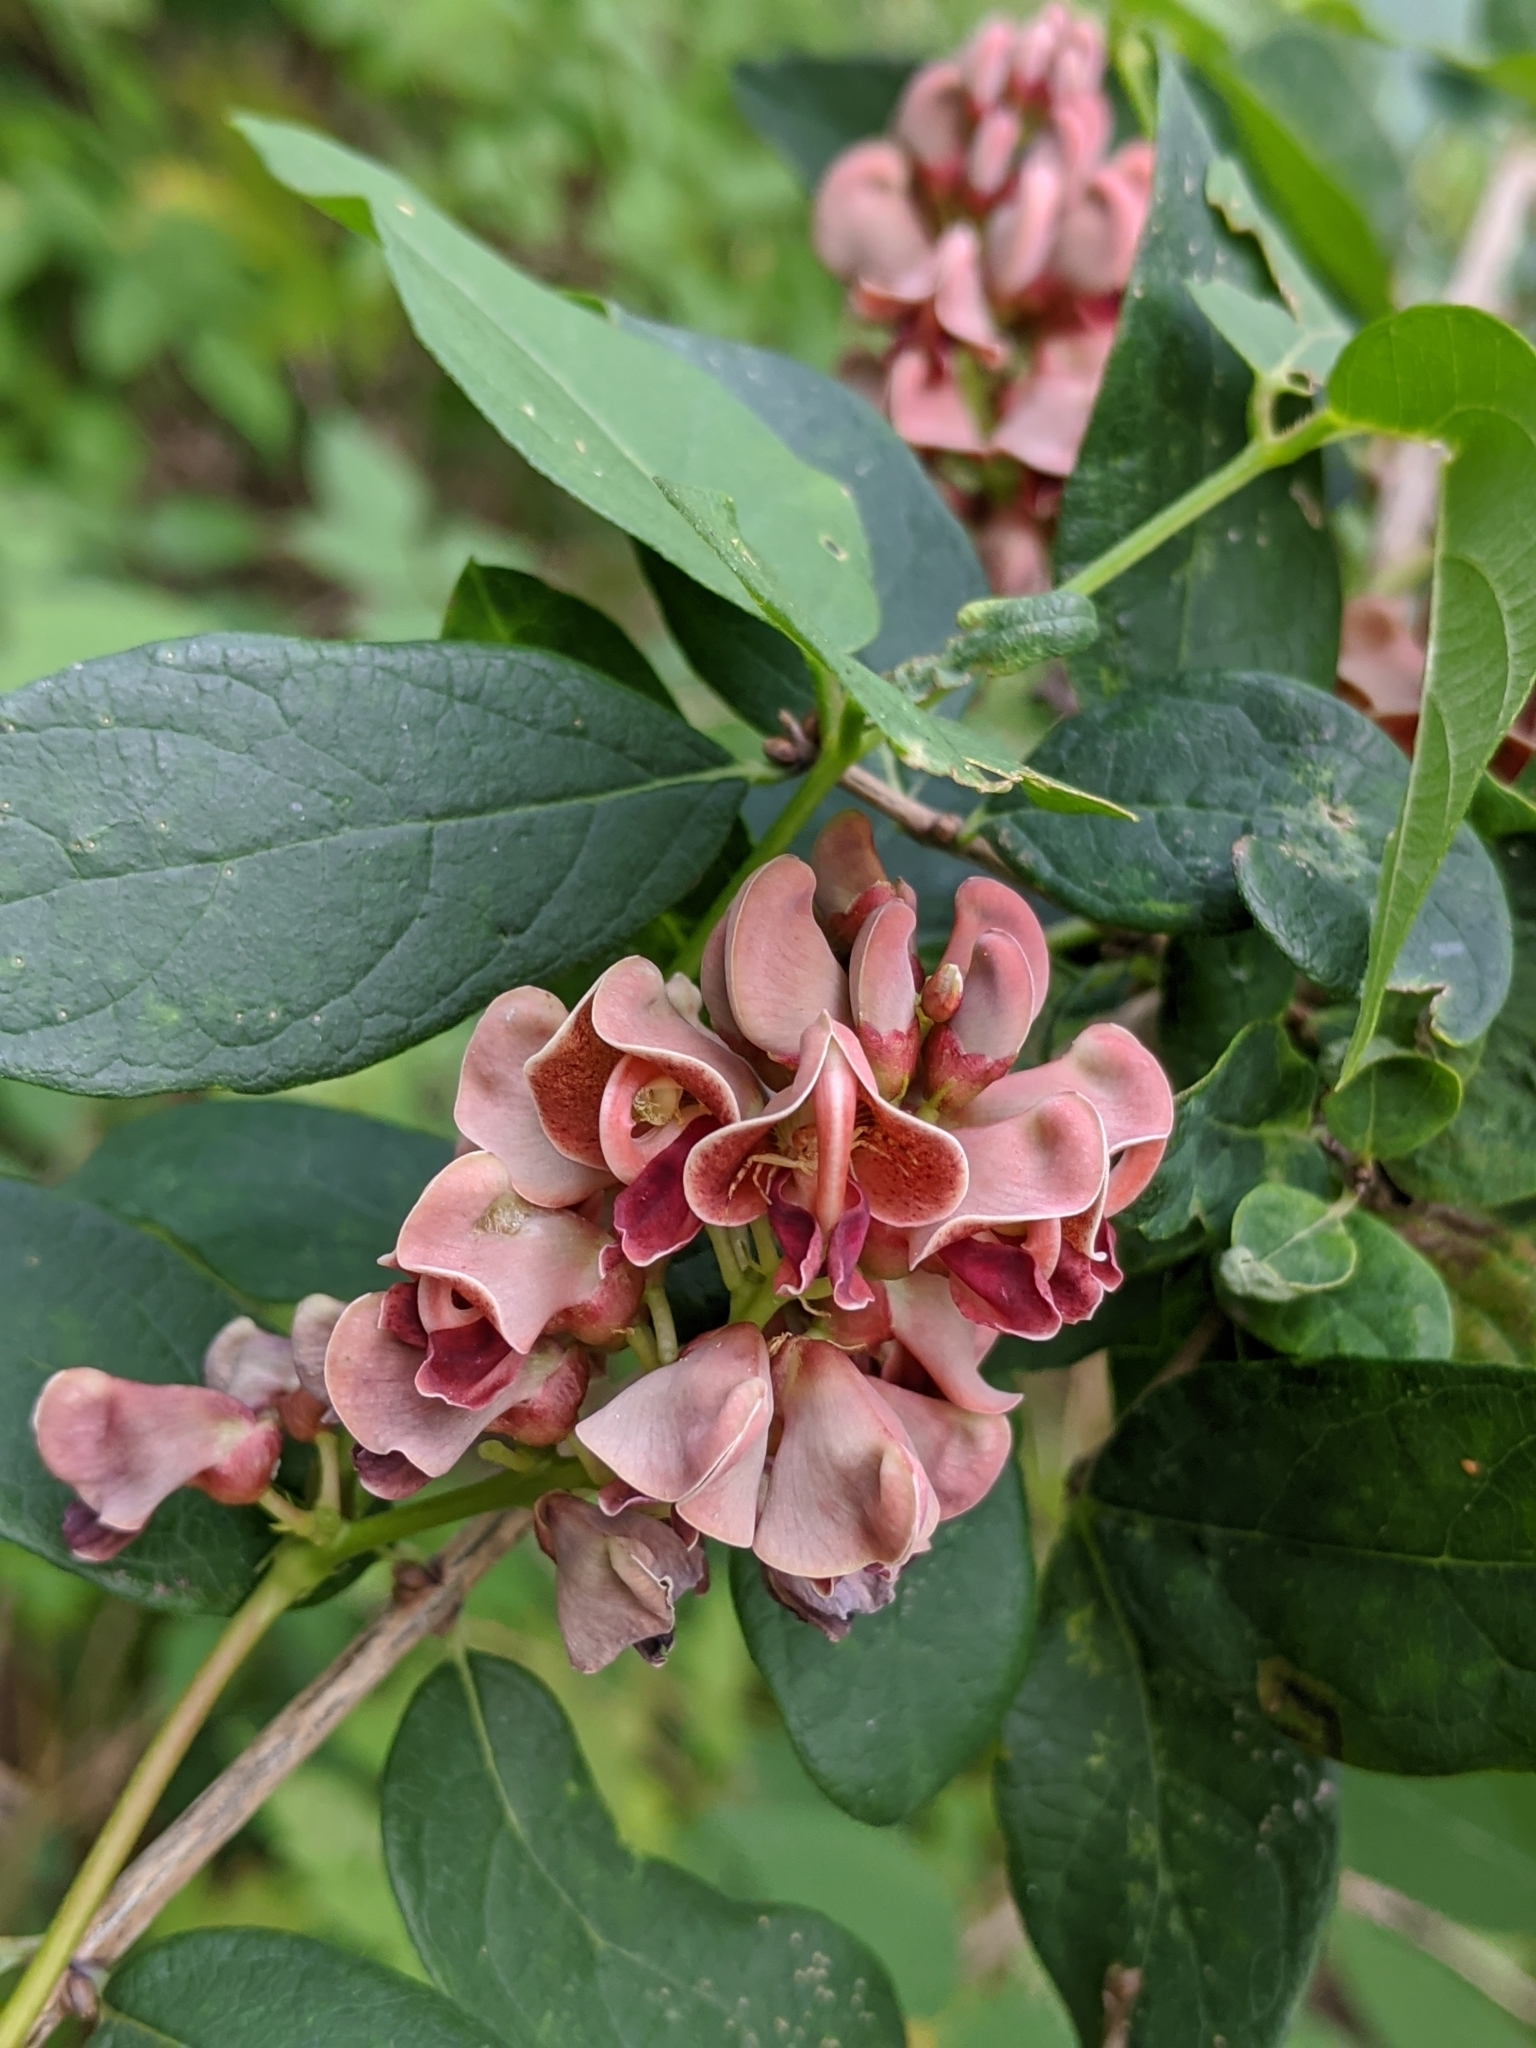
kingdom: Plantae
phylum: Tracheophyta
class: Magnoliopsida
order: Fabales
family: Fabaceae
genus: Apios
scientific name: Apios americana
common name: American potato-bean
